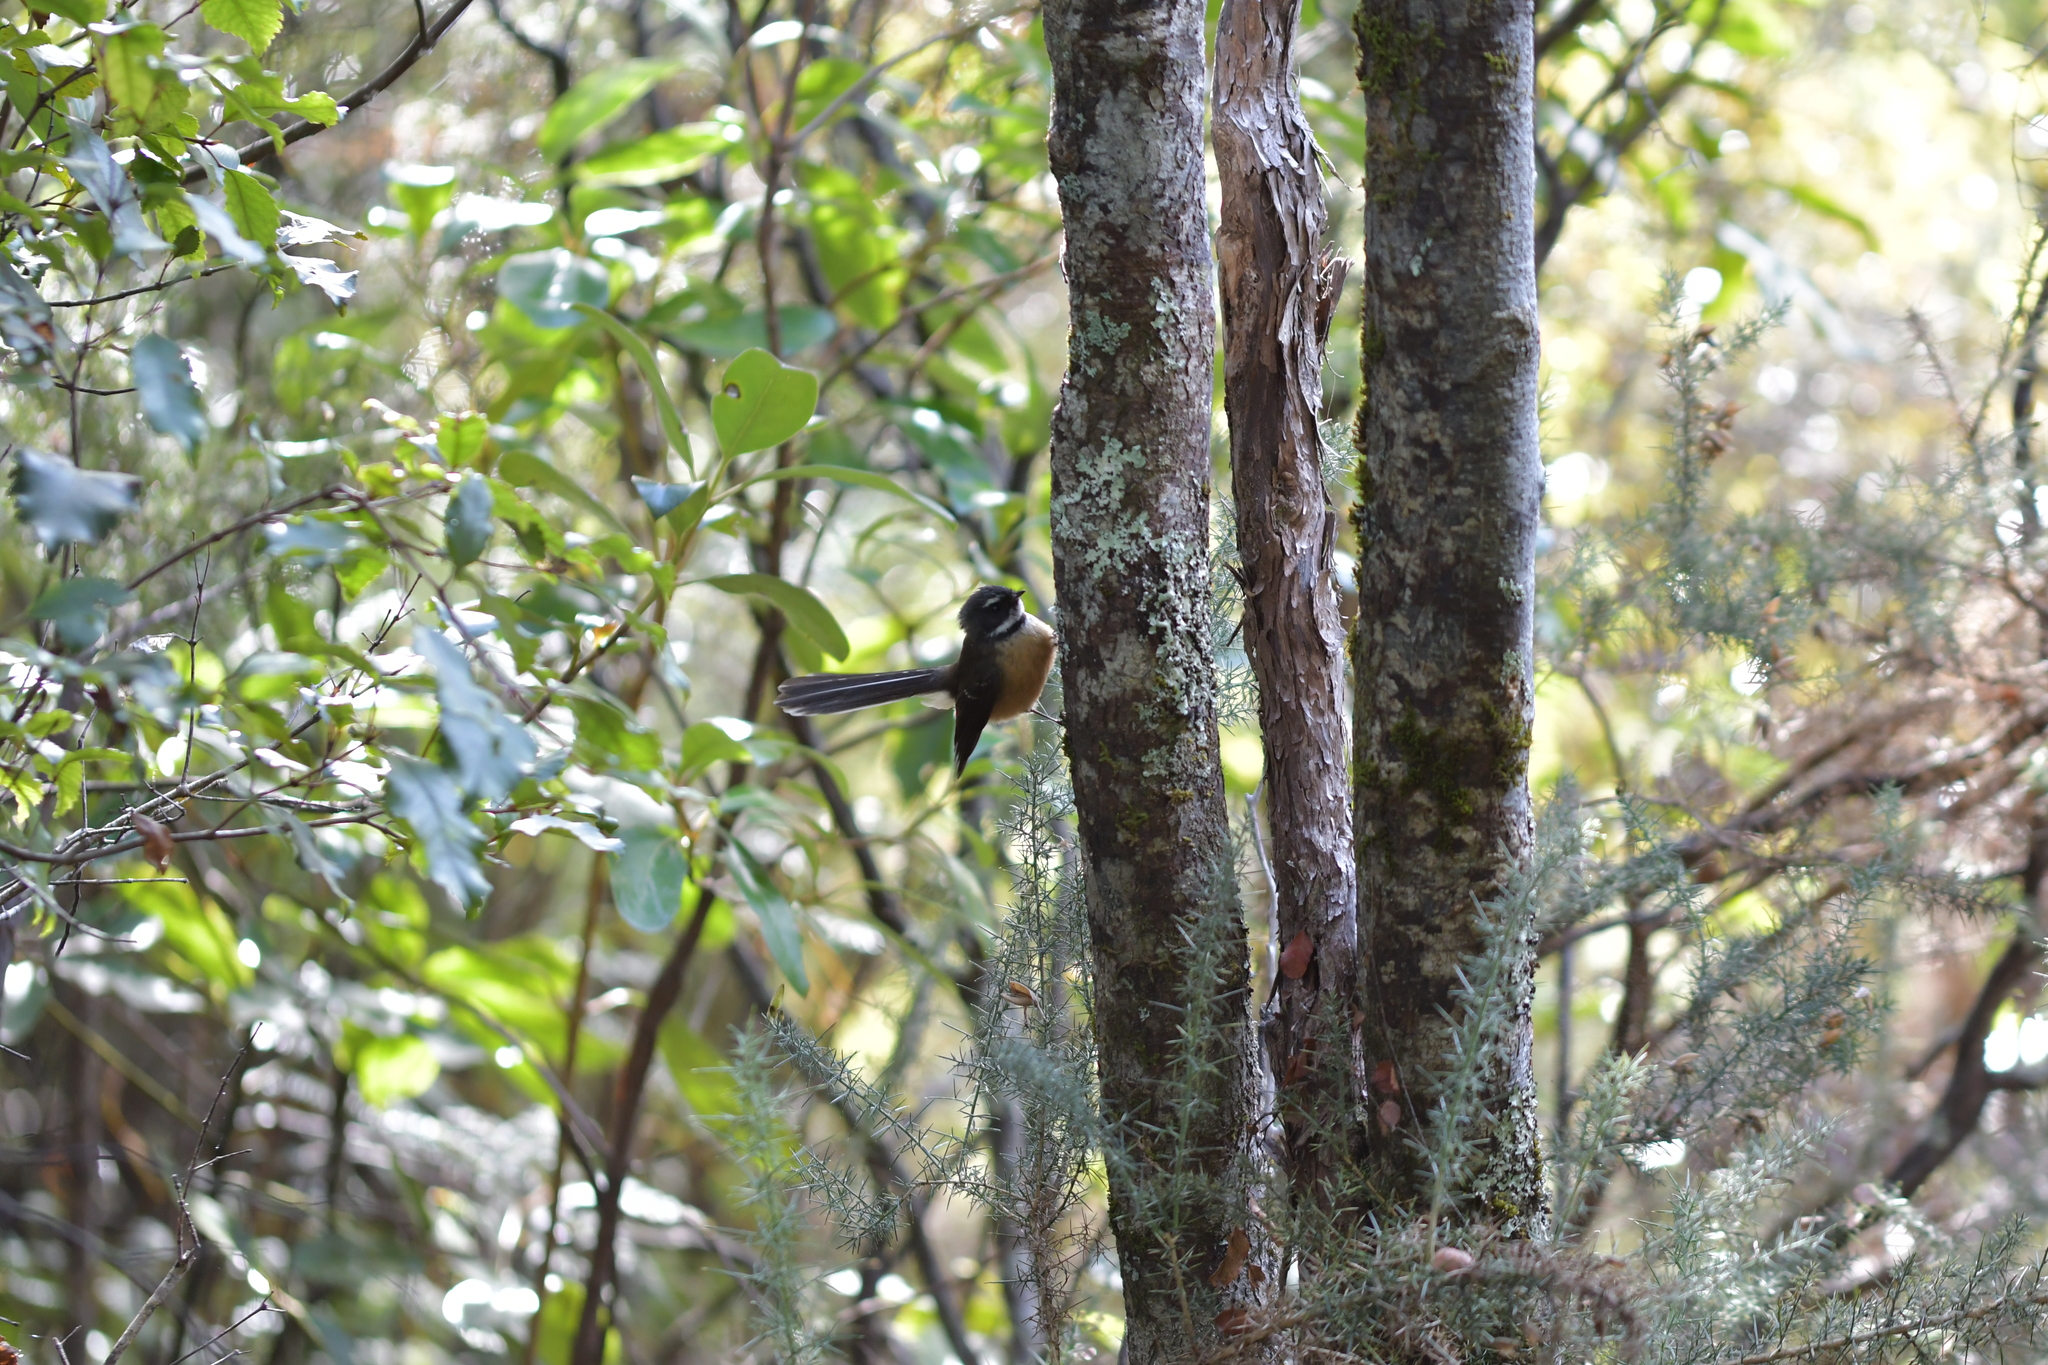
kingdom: Animalia
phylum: Chordata
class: Aves
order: Passeriformes
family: Rhipiduridae
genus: Rhipidura
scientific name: Rhipidura fuliginosa
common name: New zealand fantail
